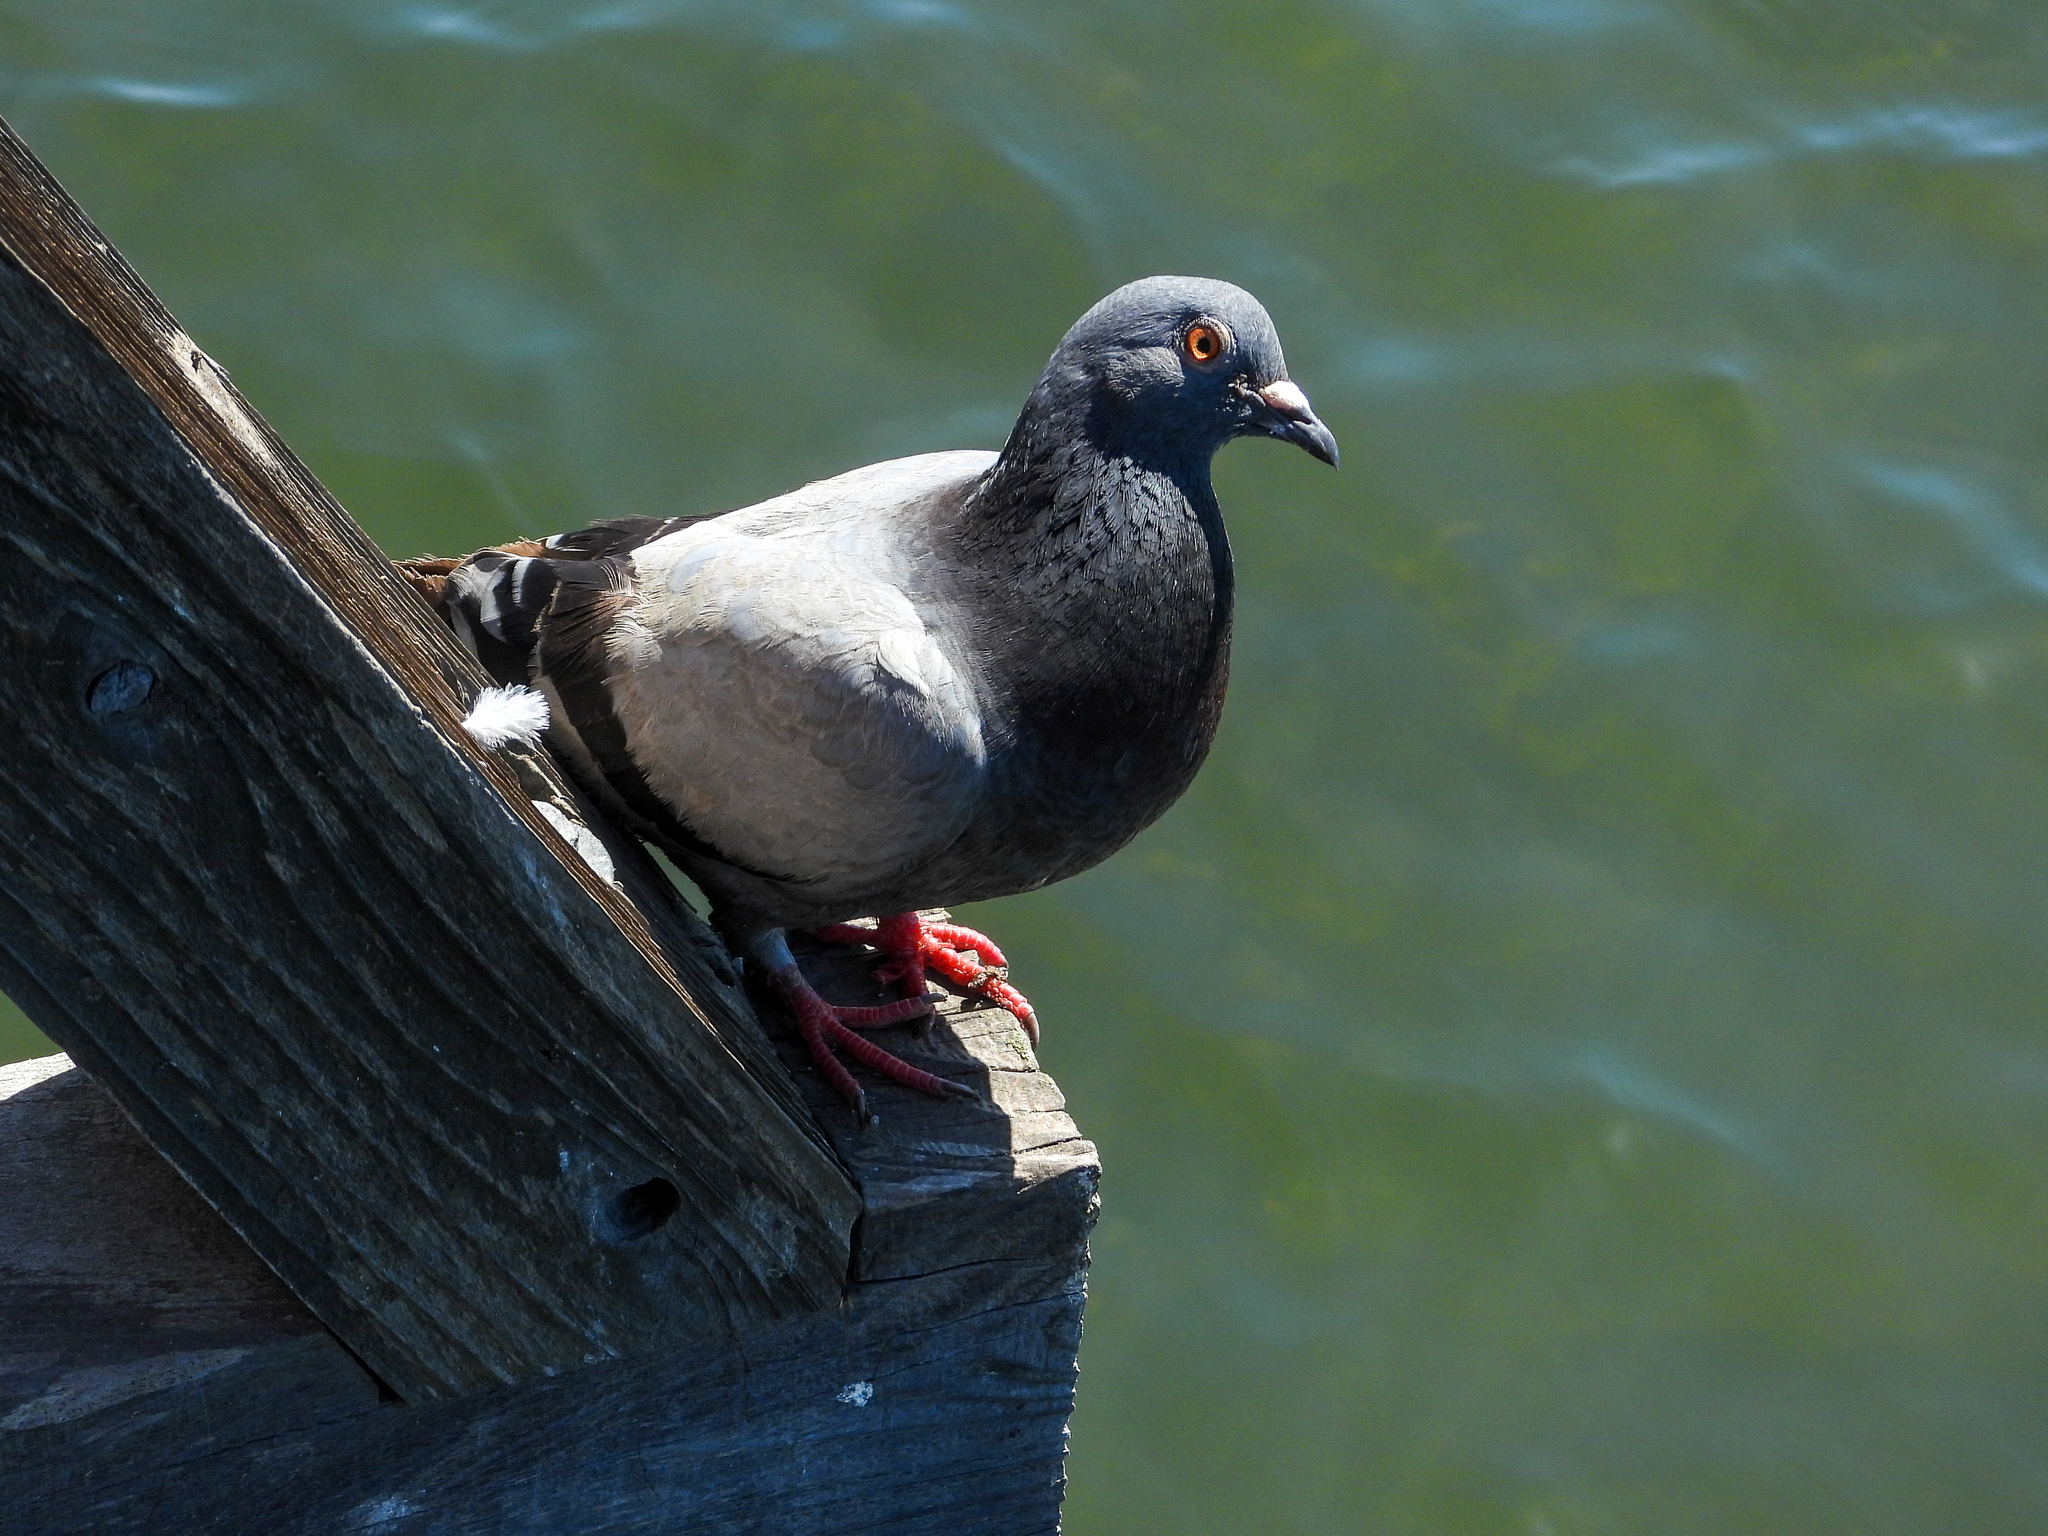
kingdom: Animalia
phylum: Chordata
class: Aves
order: Columbiformes
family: Columbidae
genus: Columba
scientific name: Columba livia
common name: Rock pigeon
